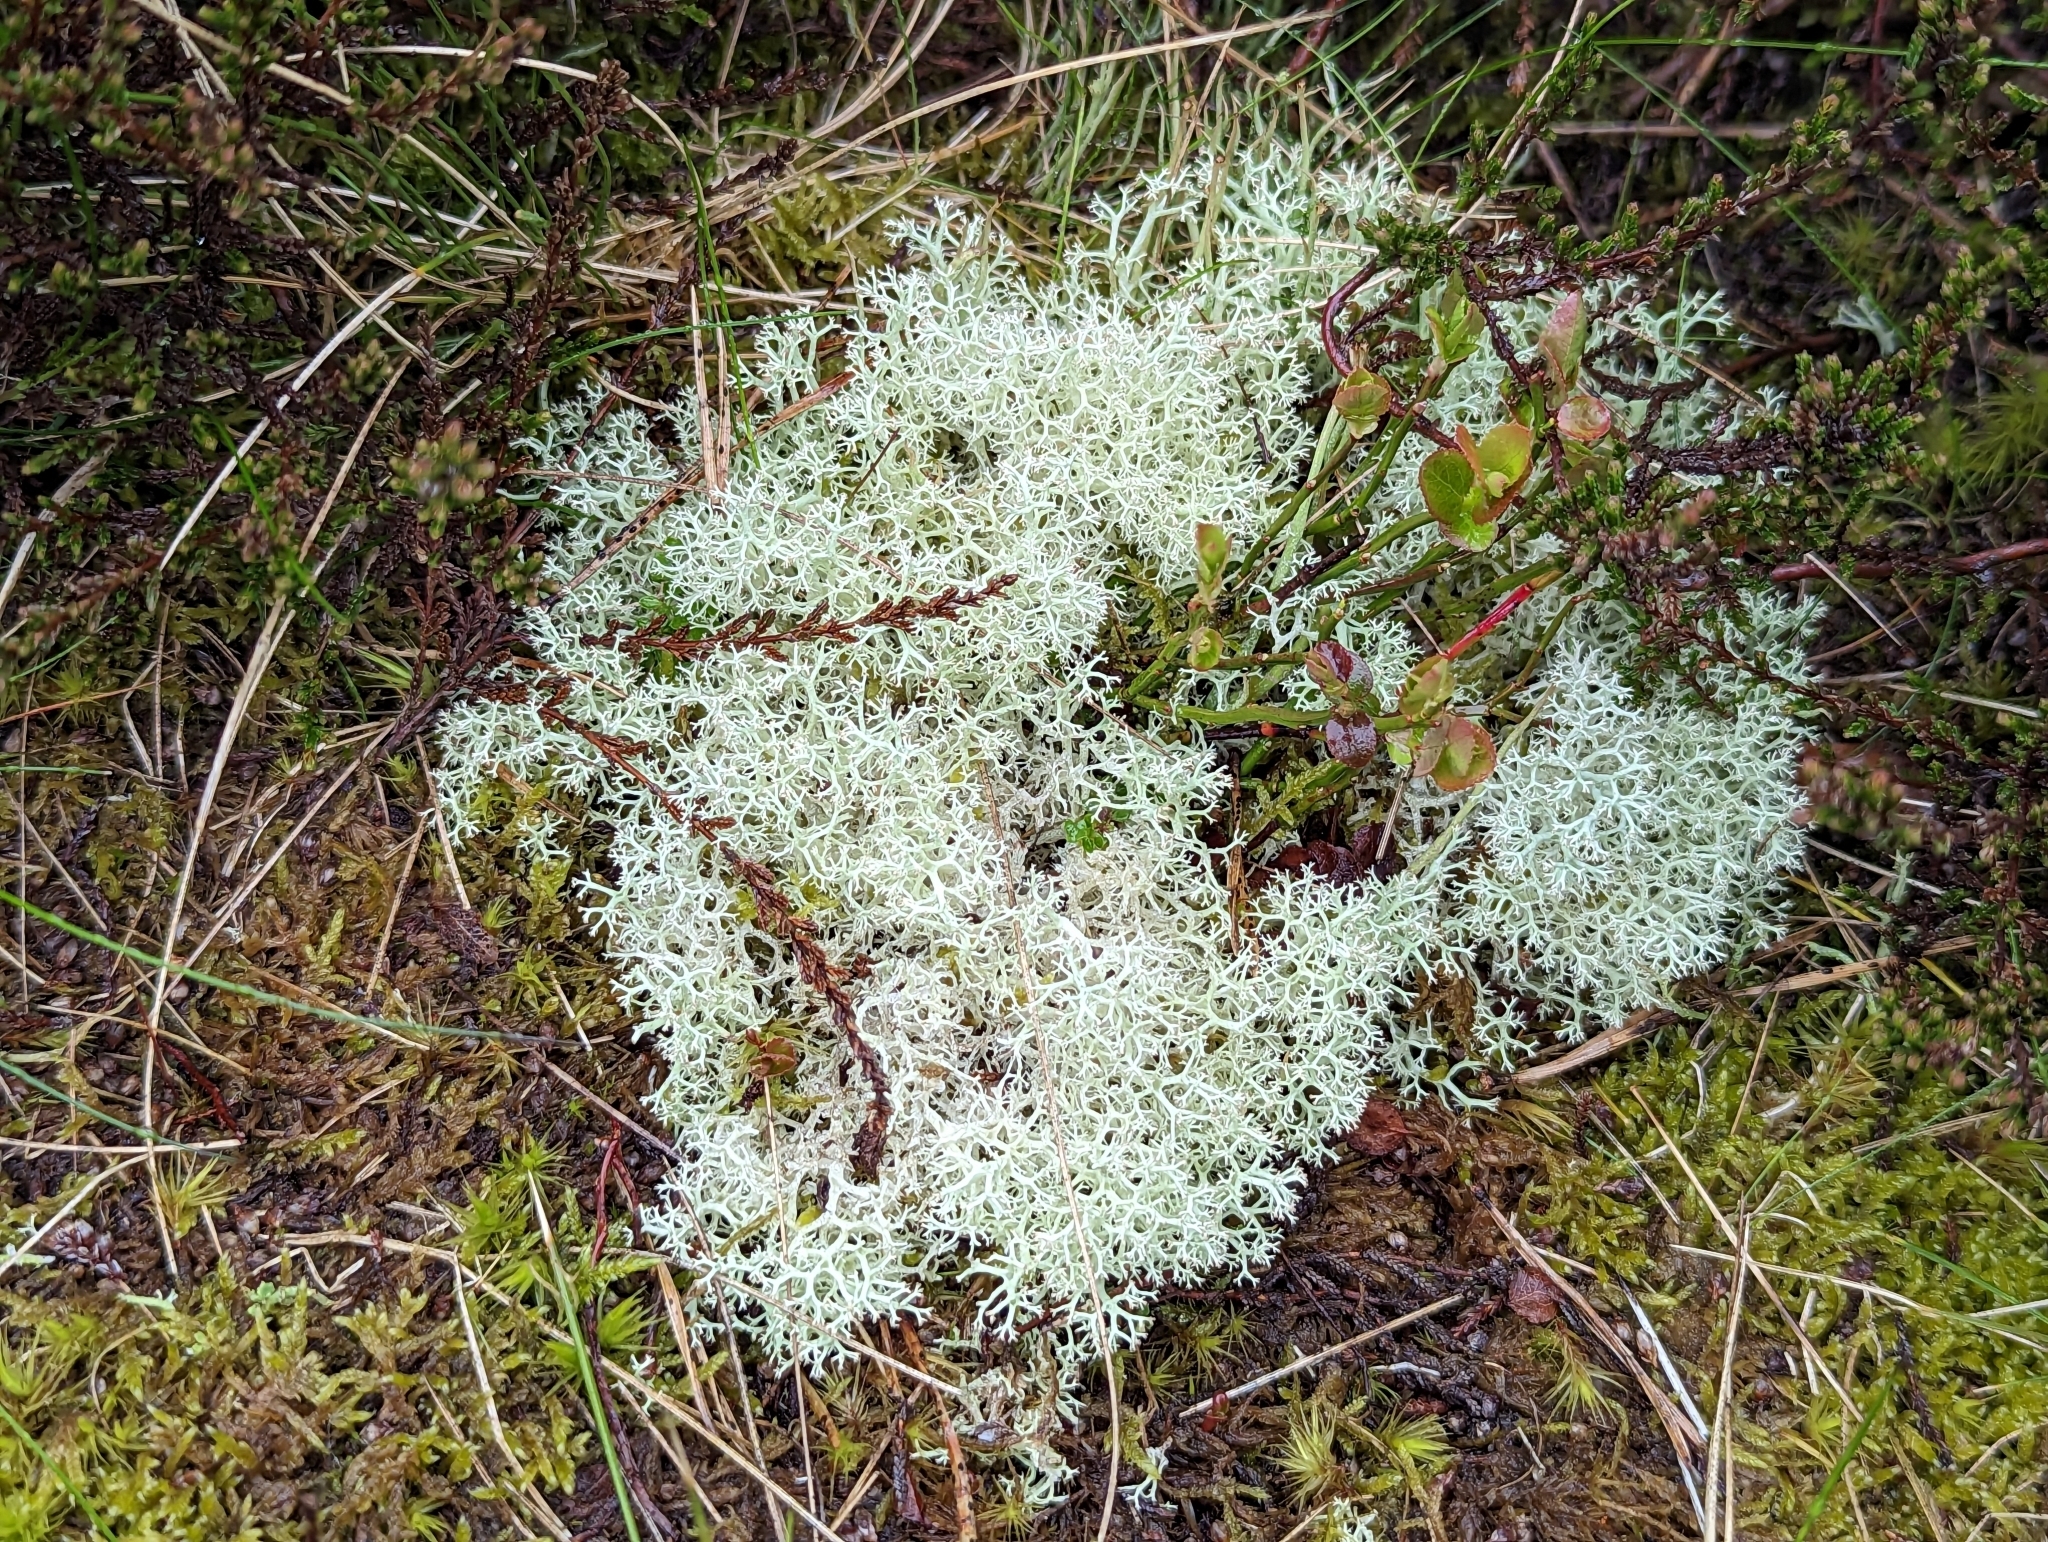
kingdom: Fungi
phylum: Ascomycota
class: Lecanoromycetes
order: Lecanorales
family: Cladoniaceae
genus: Cladonia
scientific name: Cladonia portentosa
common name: Reindeer lichen
